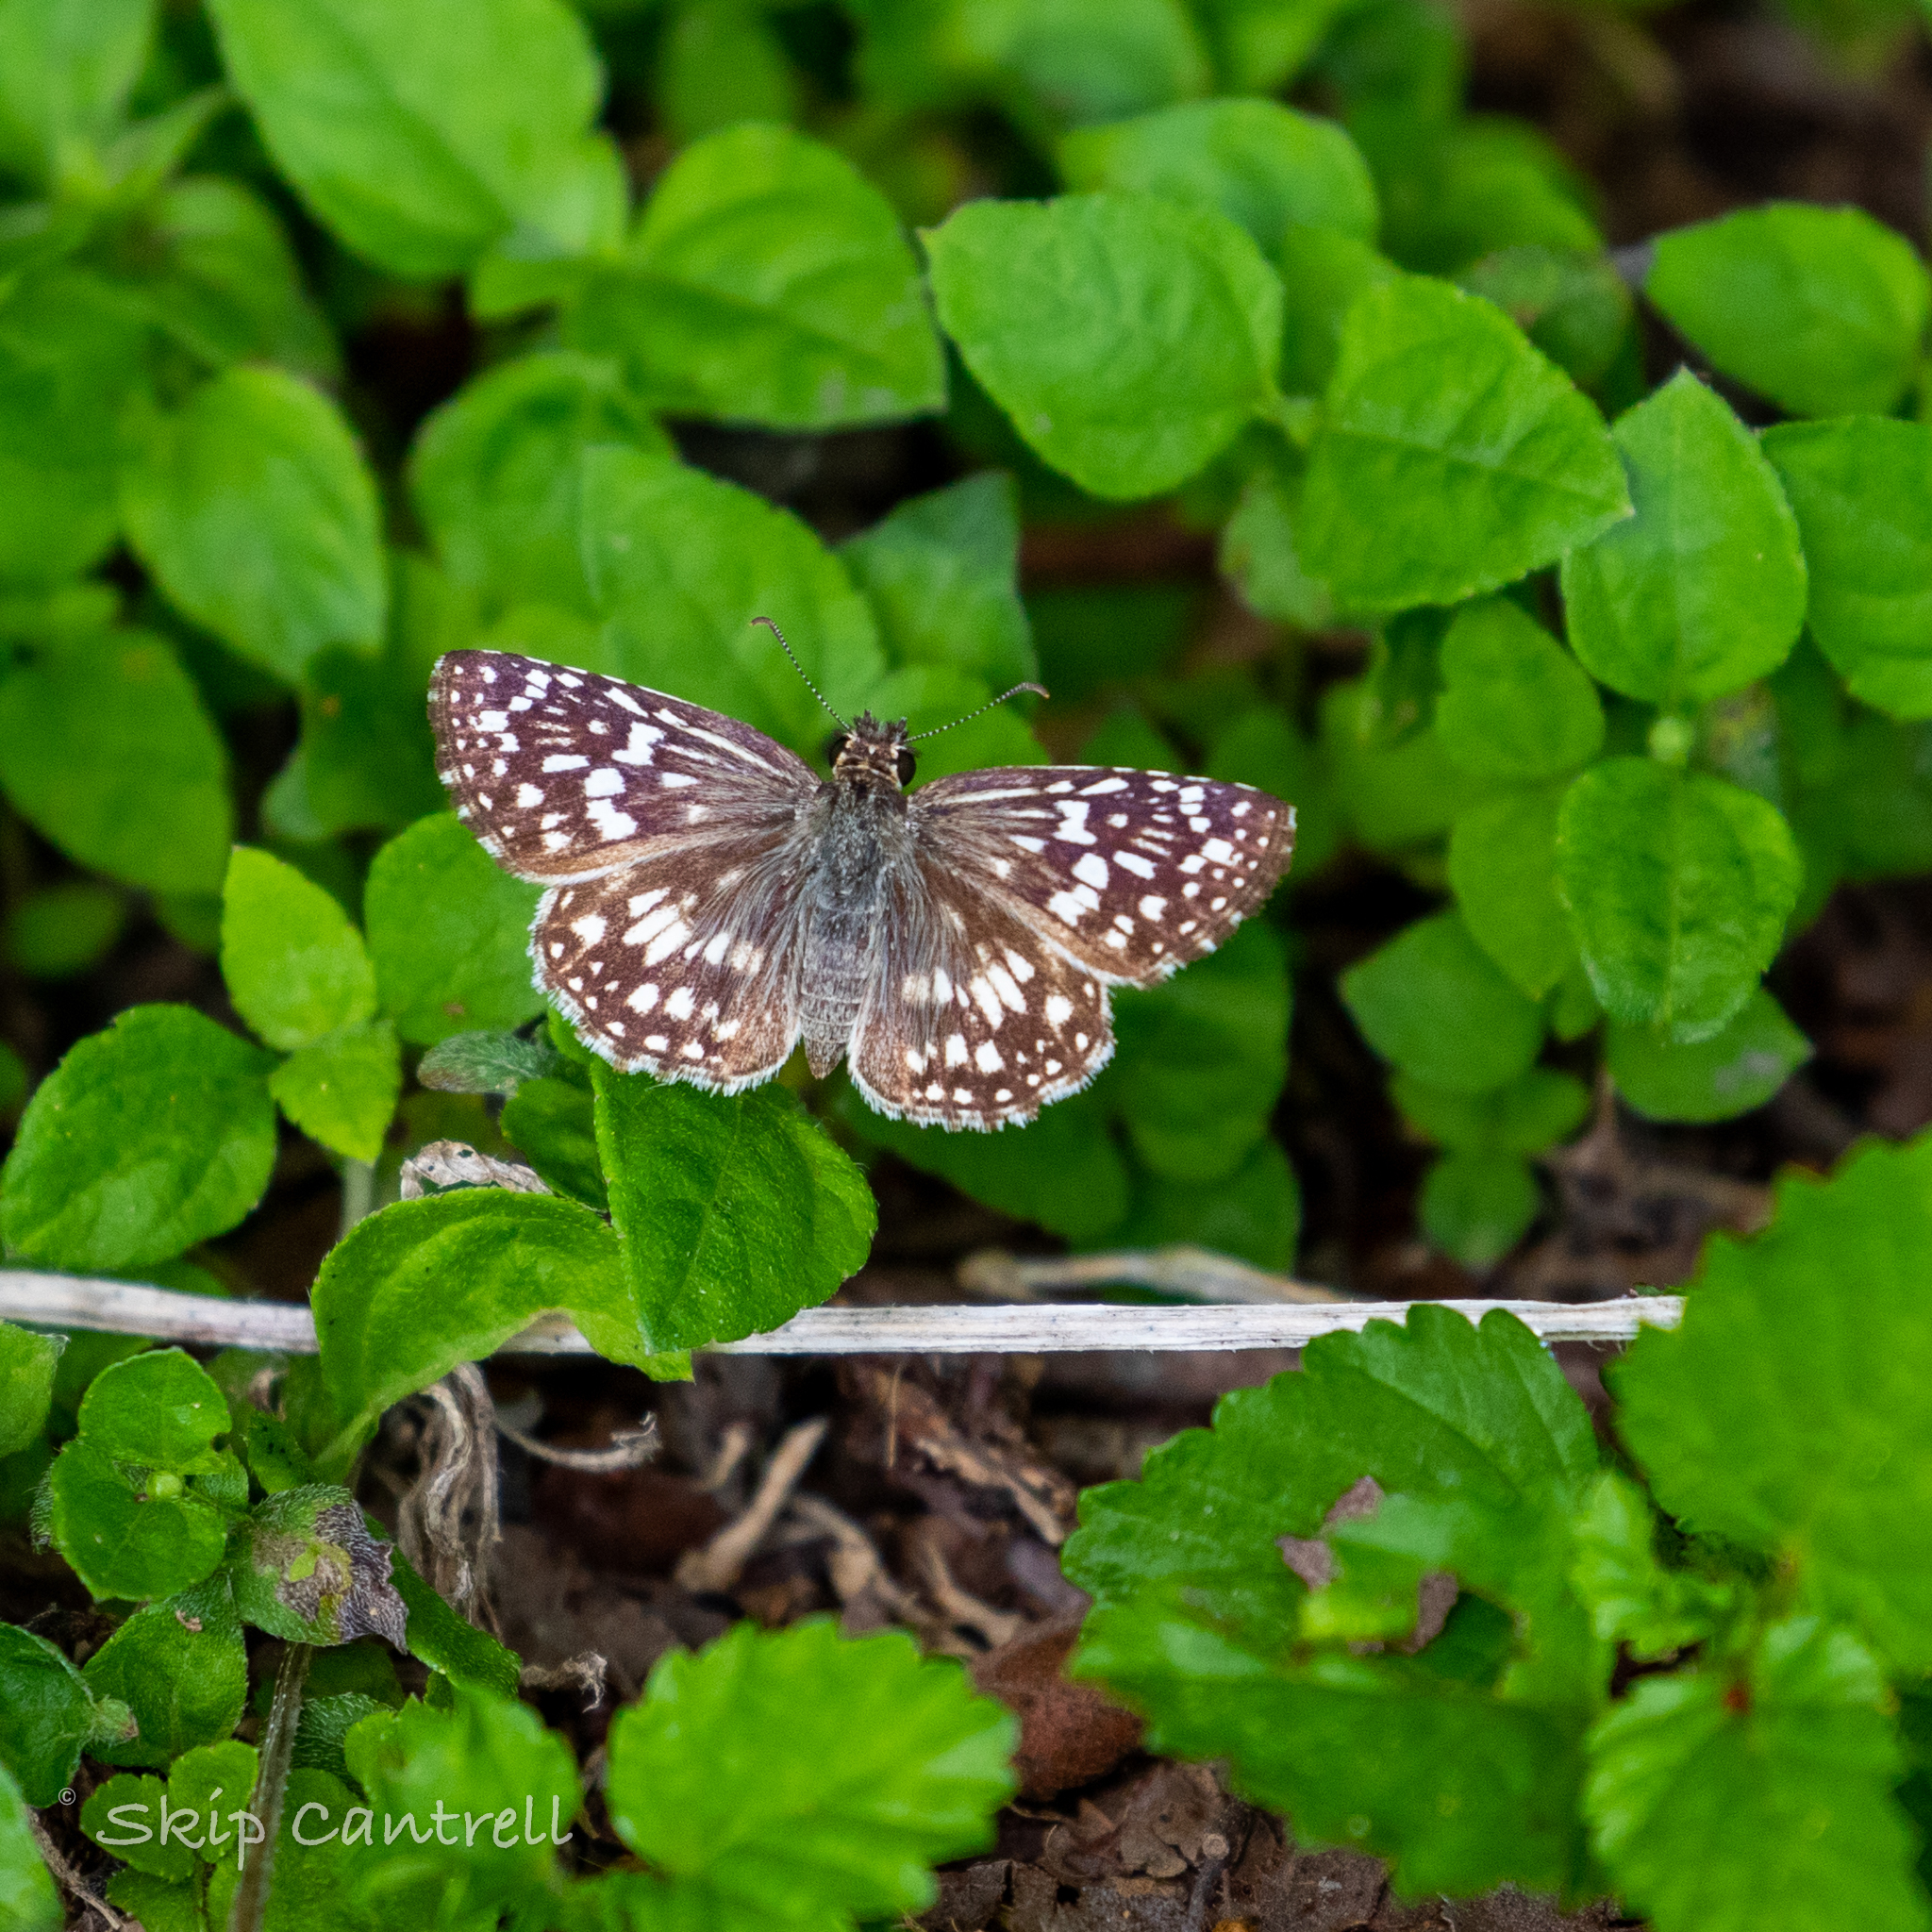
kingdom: Animalia
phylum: Arthropoda
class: Insecta
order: Lepidoptera
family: Hesperiidae
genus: Pyrgus
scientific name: Pyrgus oileus
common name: Tropical checkered-skipper
